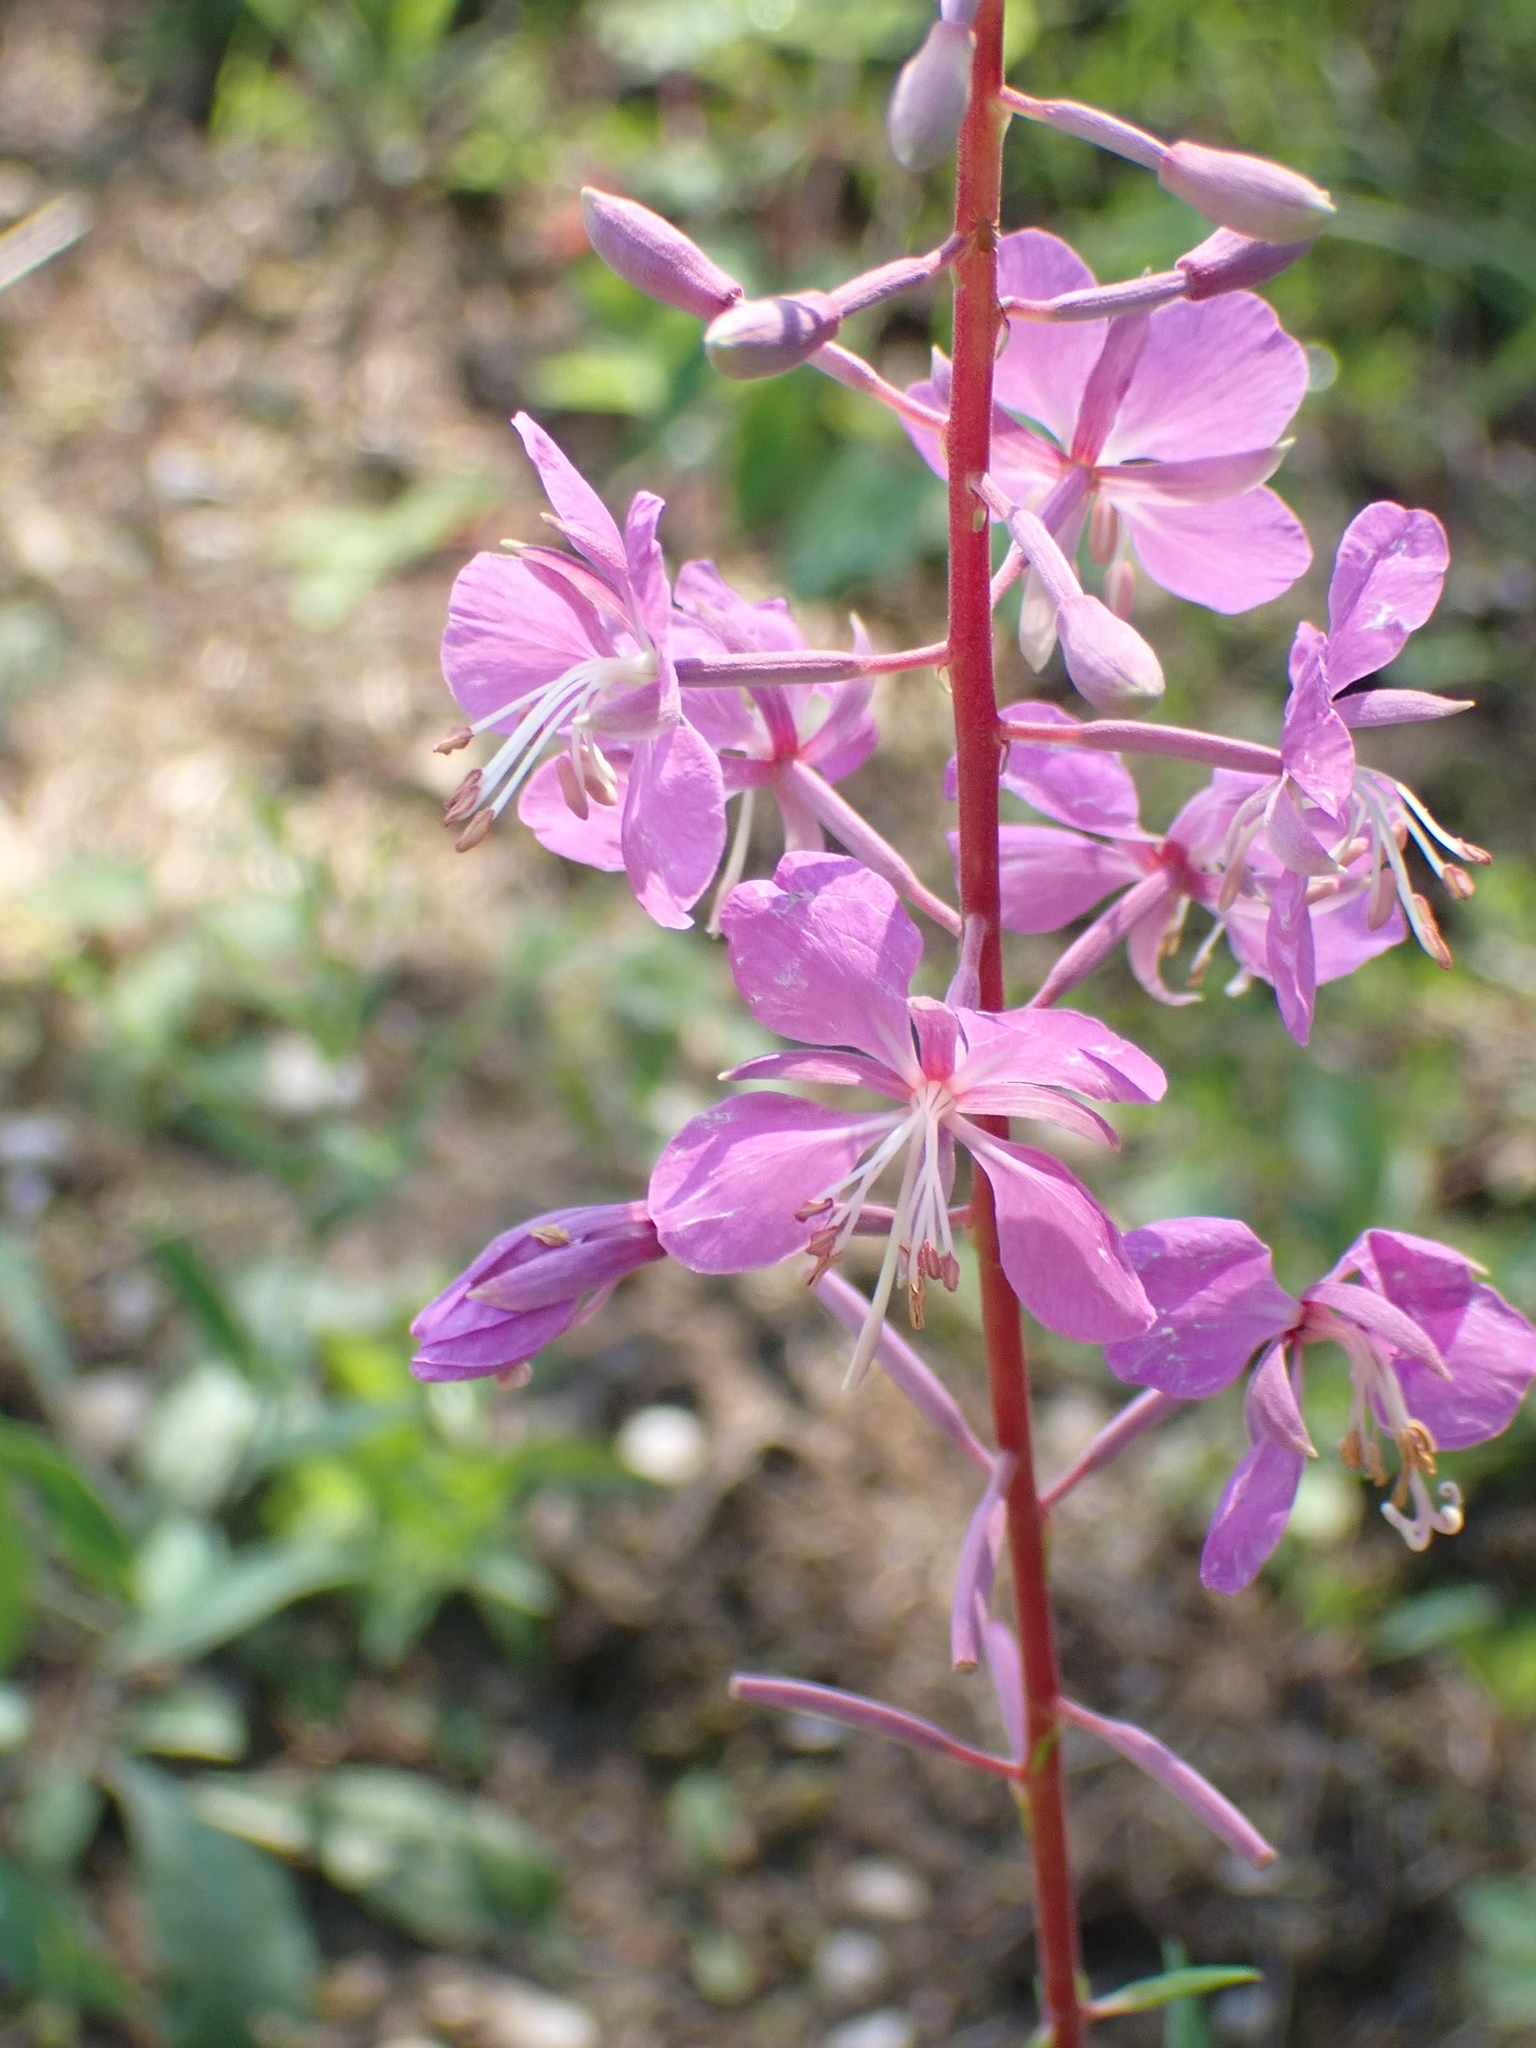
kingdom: Plantae
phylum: Tracheophyta
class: Magnoliopsida
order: Myrtales
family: Onagraceae
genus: Chamaenerion
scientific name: Chamaenerion angustifolium
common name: Fireweed
